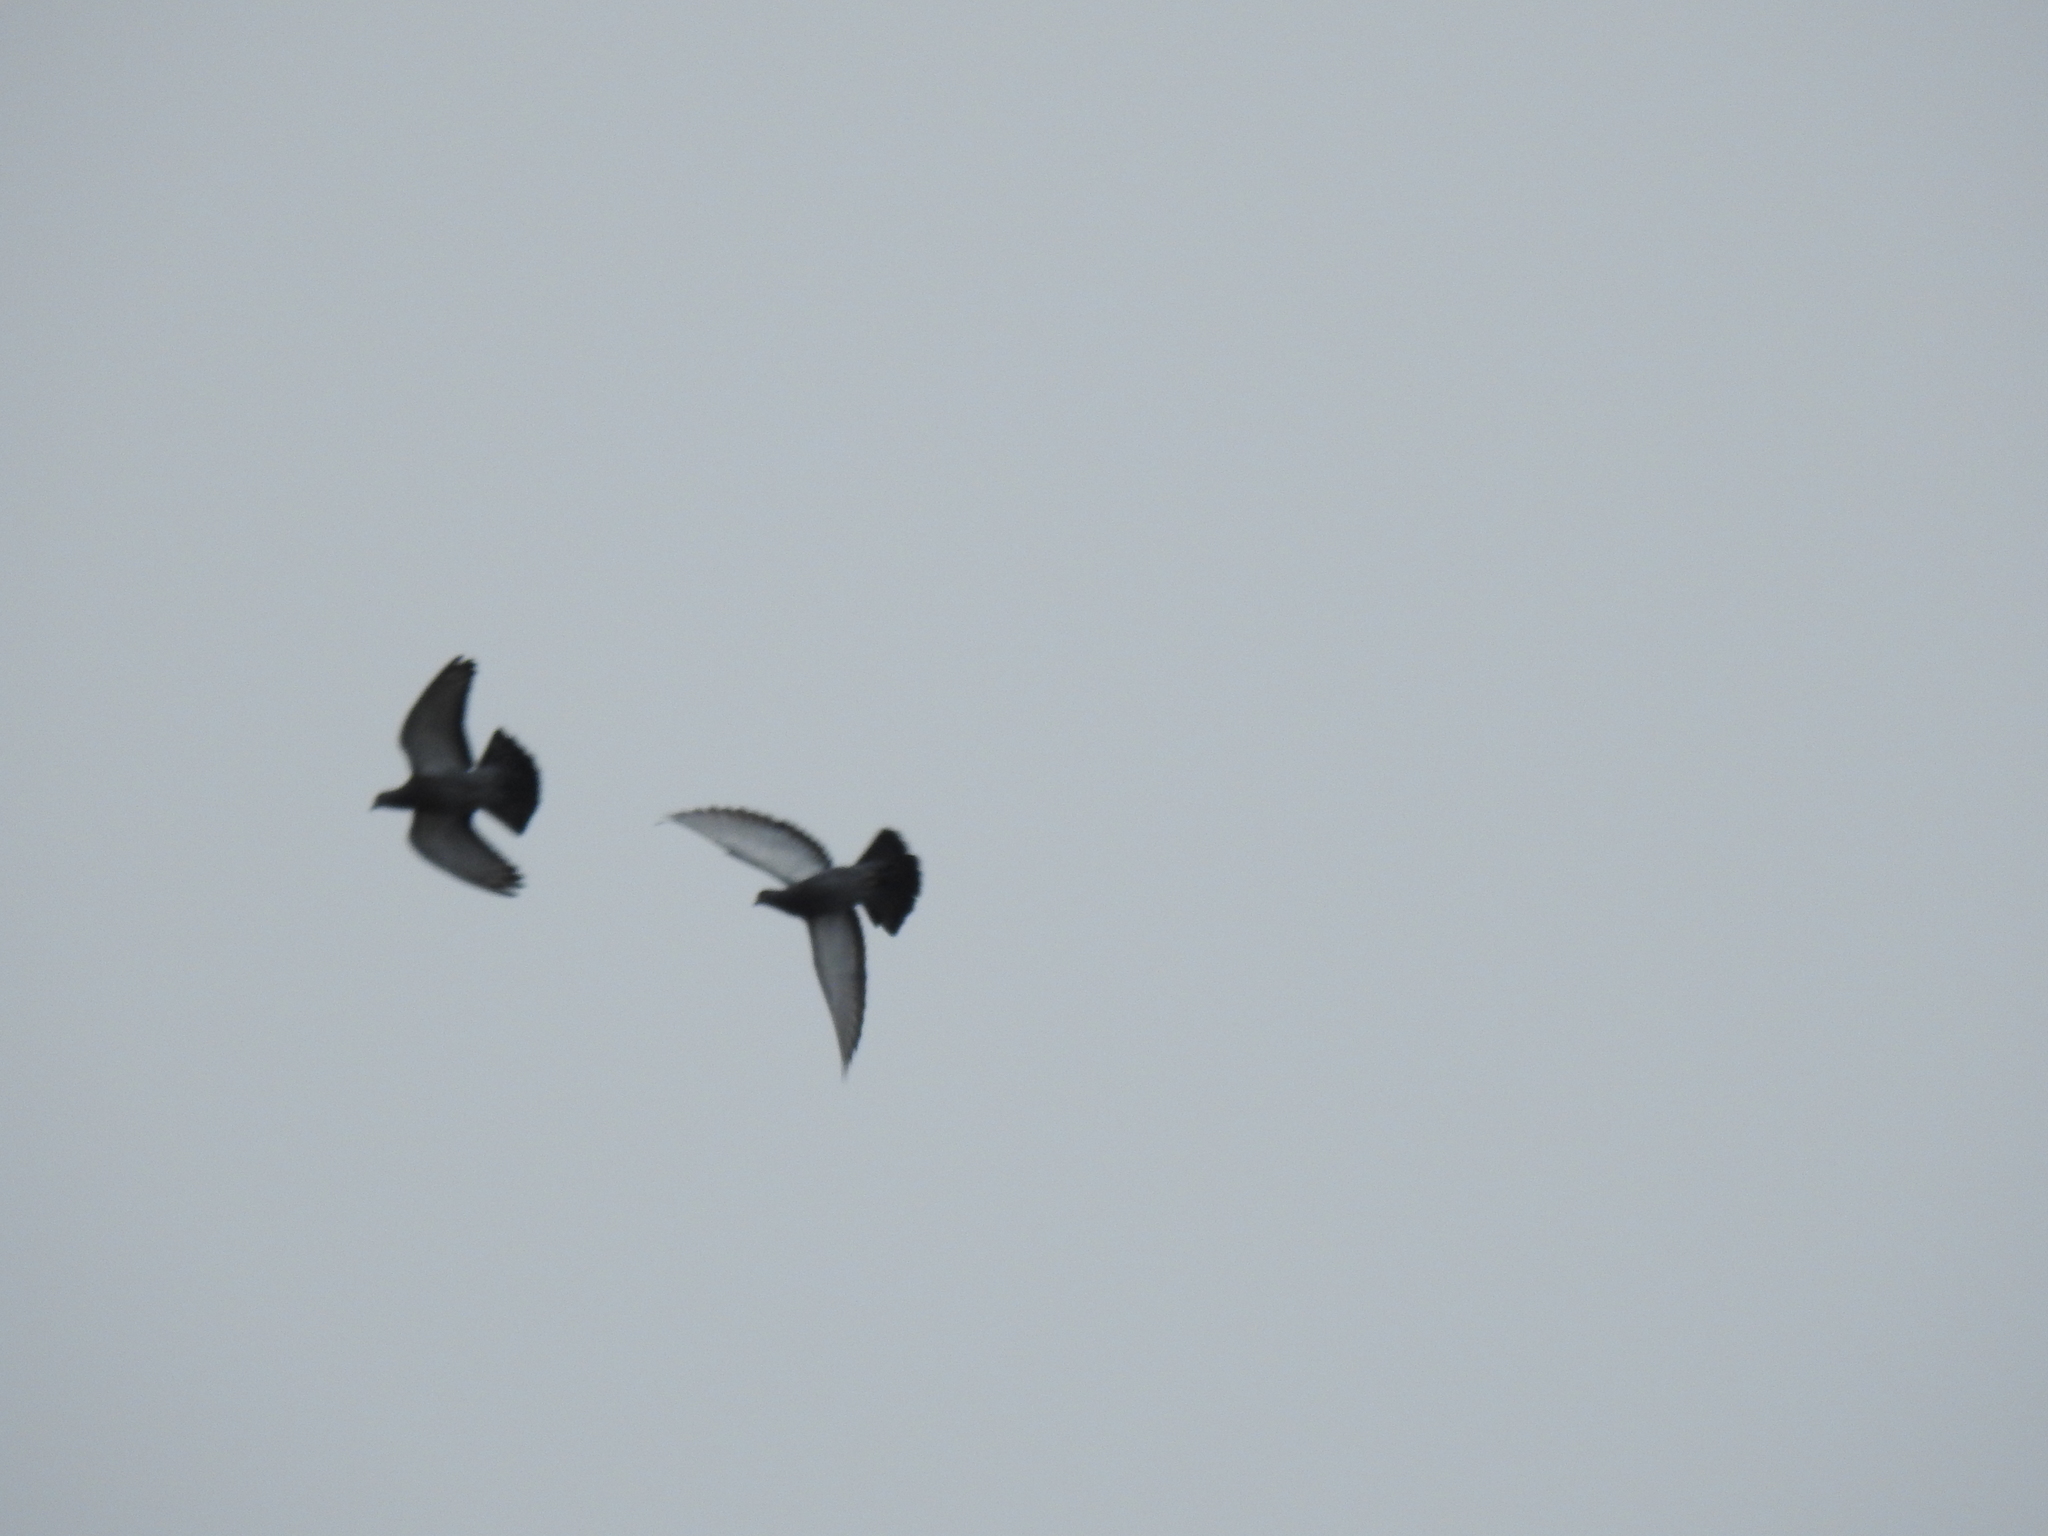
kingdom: Animalia
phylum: Chordata
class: Aves
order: Columbiformes
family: Columbidae
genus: Columba
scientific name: Columba livia
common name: Rock pigeon
